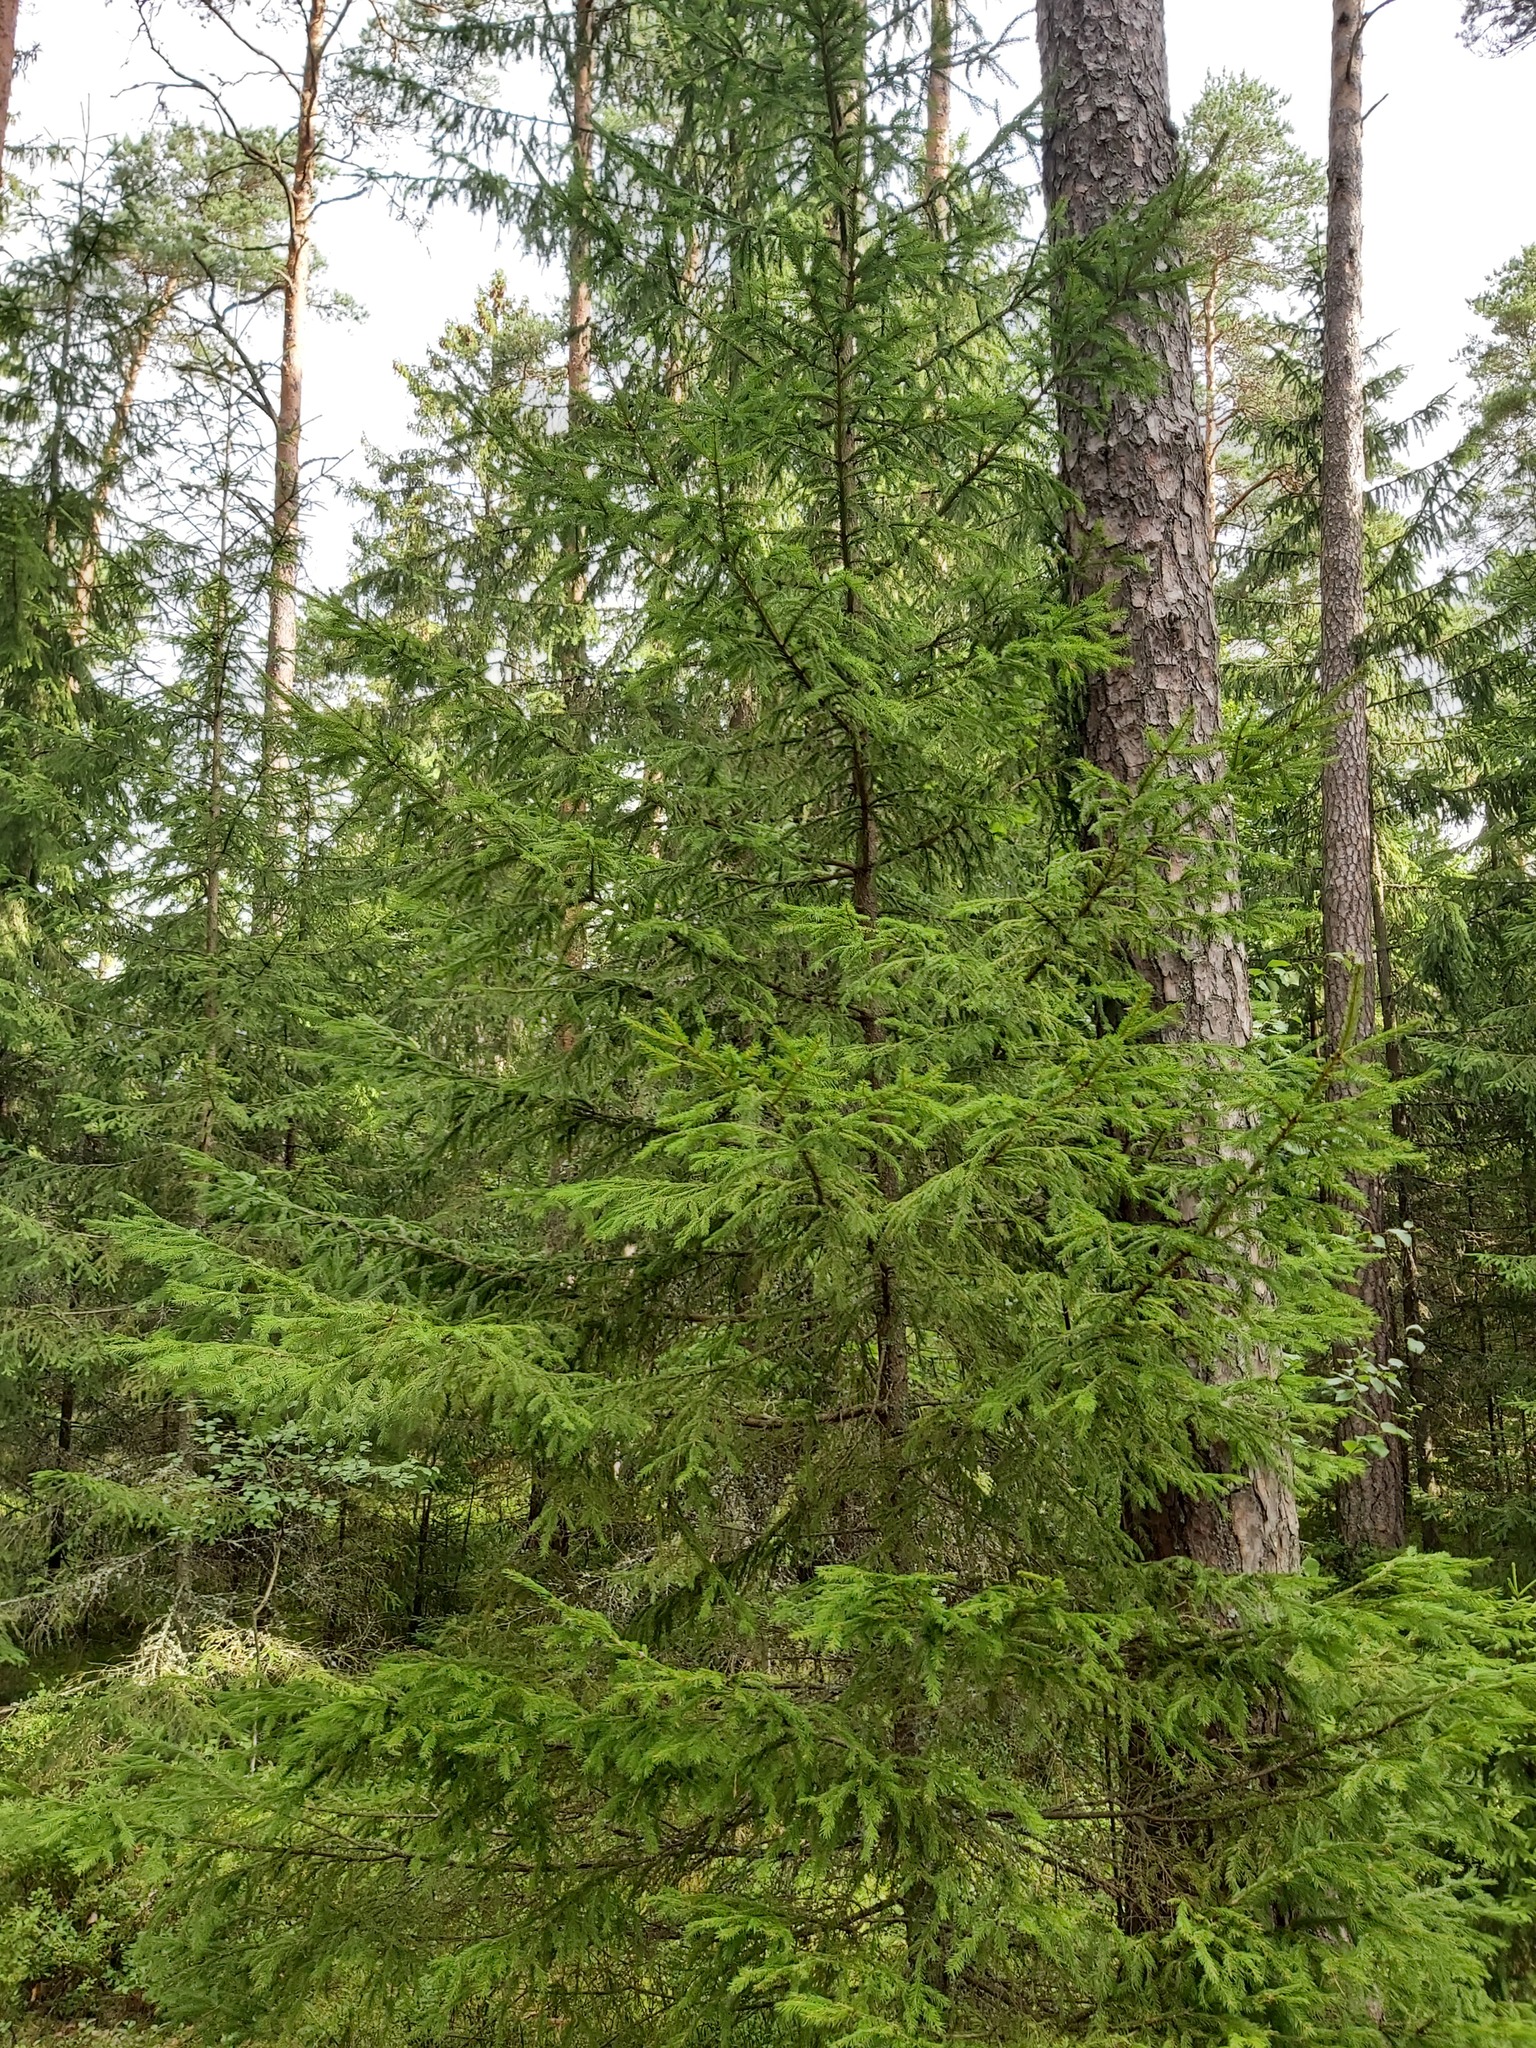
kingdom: Plantae
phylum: Tracheophyta
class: Pinopsida
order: Pinales
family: Pinaceae
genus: Picea
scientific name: Picea abies
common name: Norway spruce
